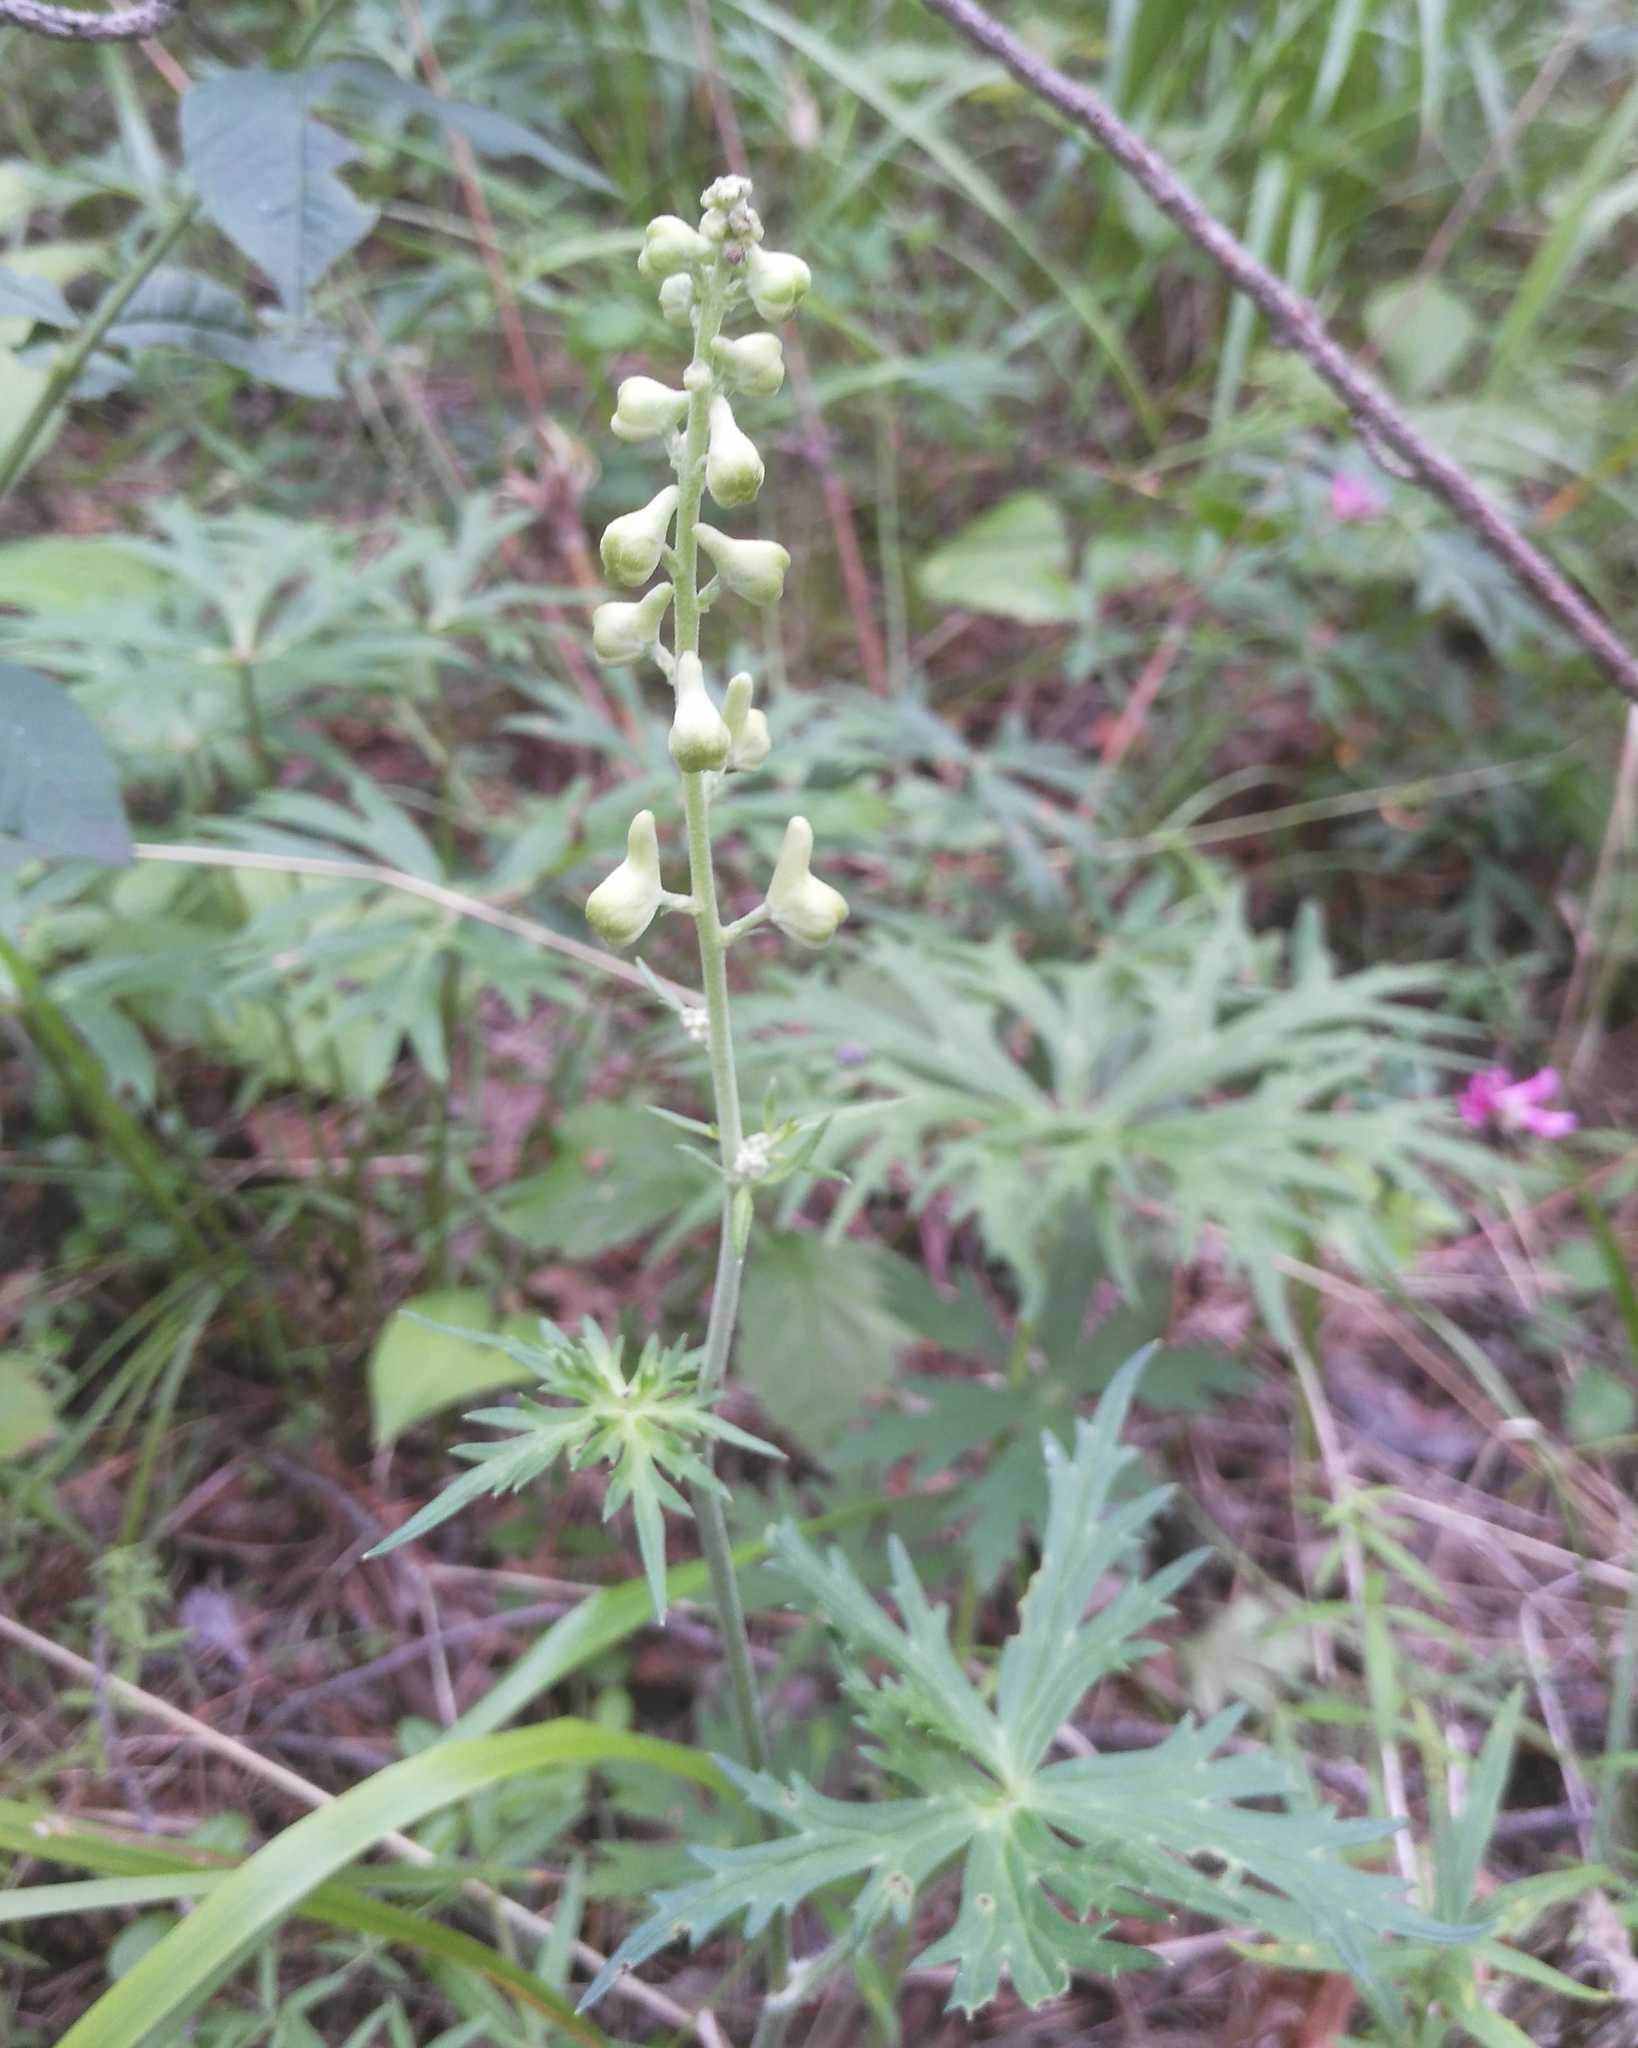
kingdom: Plantae
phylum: Tracheophyta
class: Magnoliopsida
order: Ranunculales
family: Ranunculaceae
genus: Aconitum
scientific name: Aconitum barbatum
